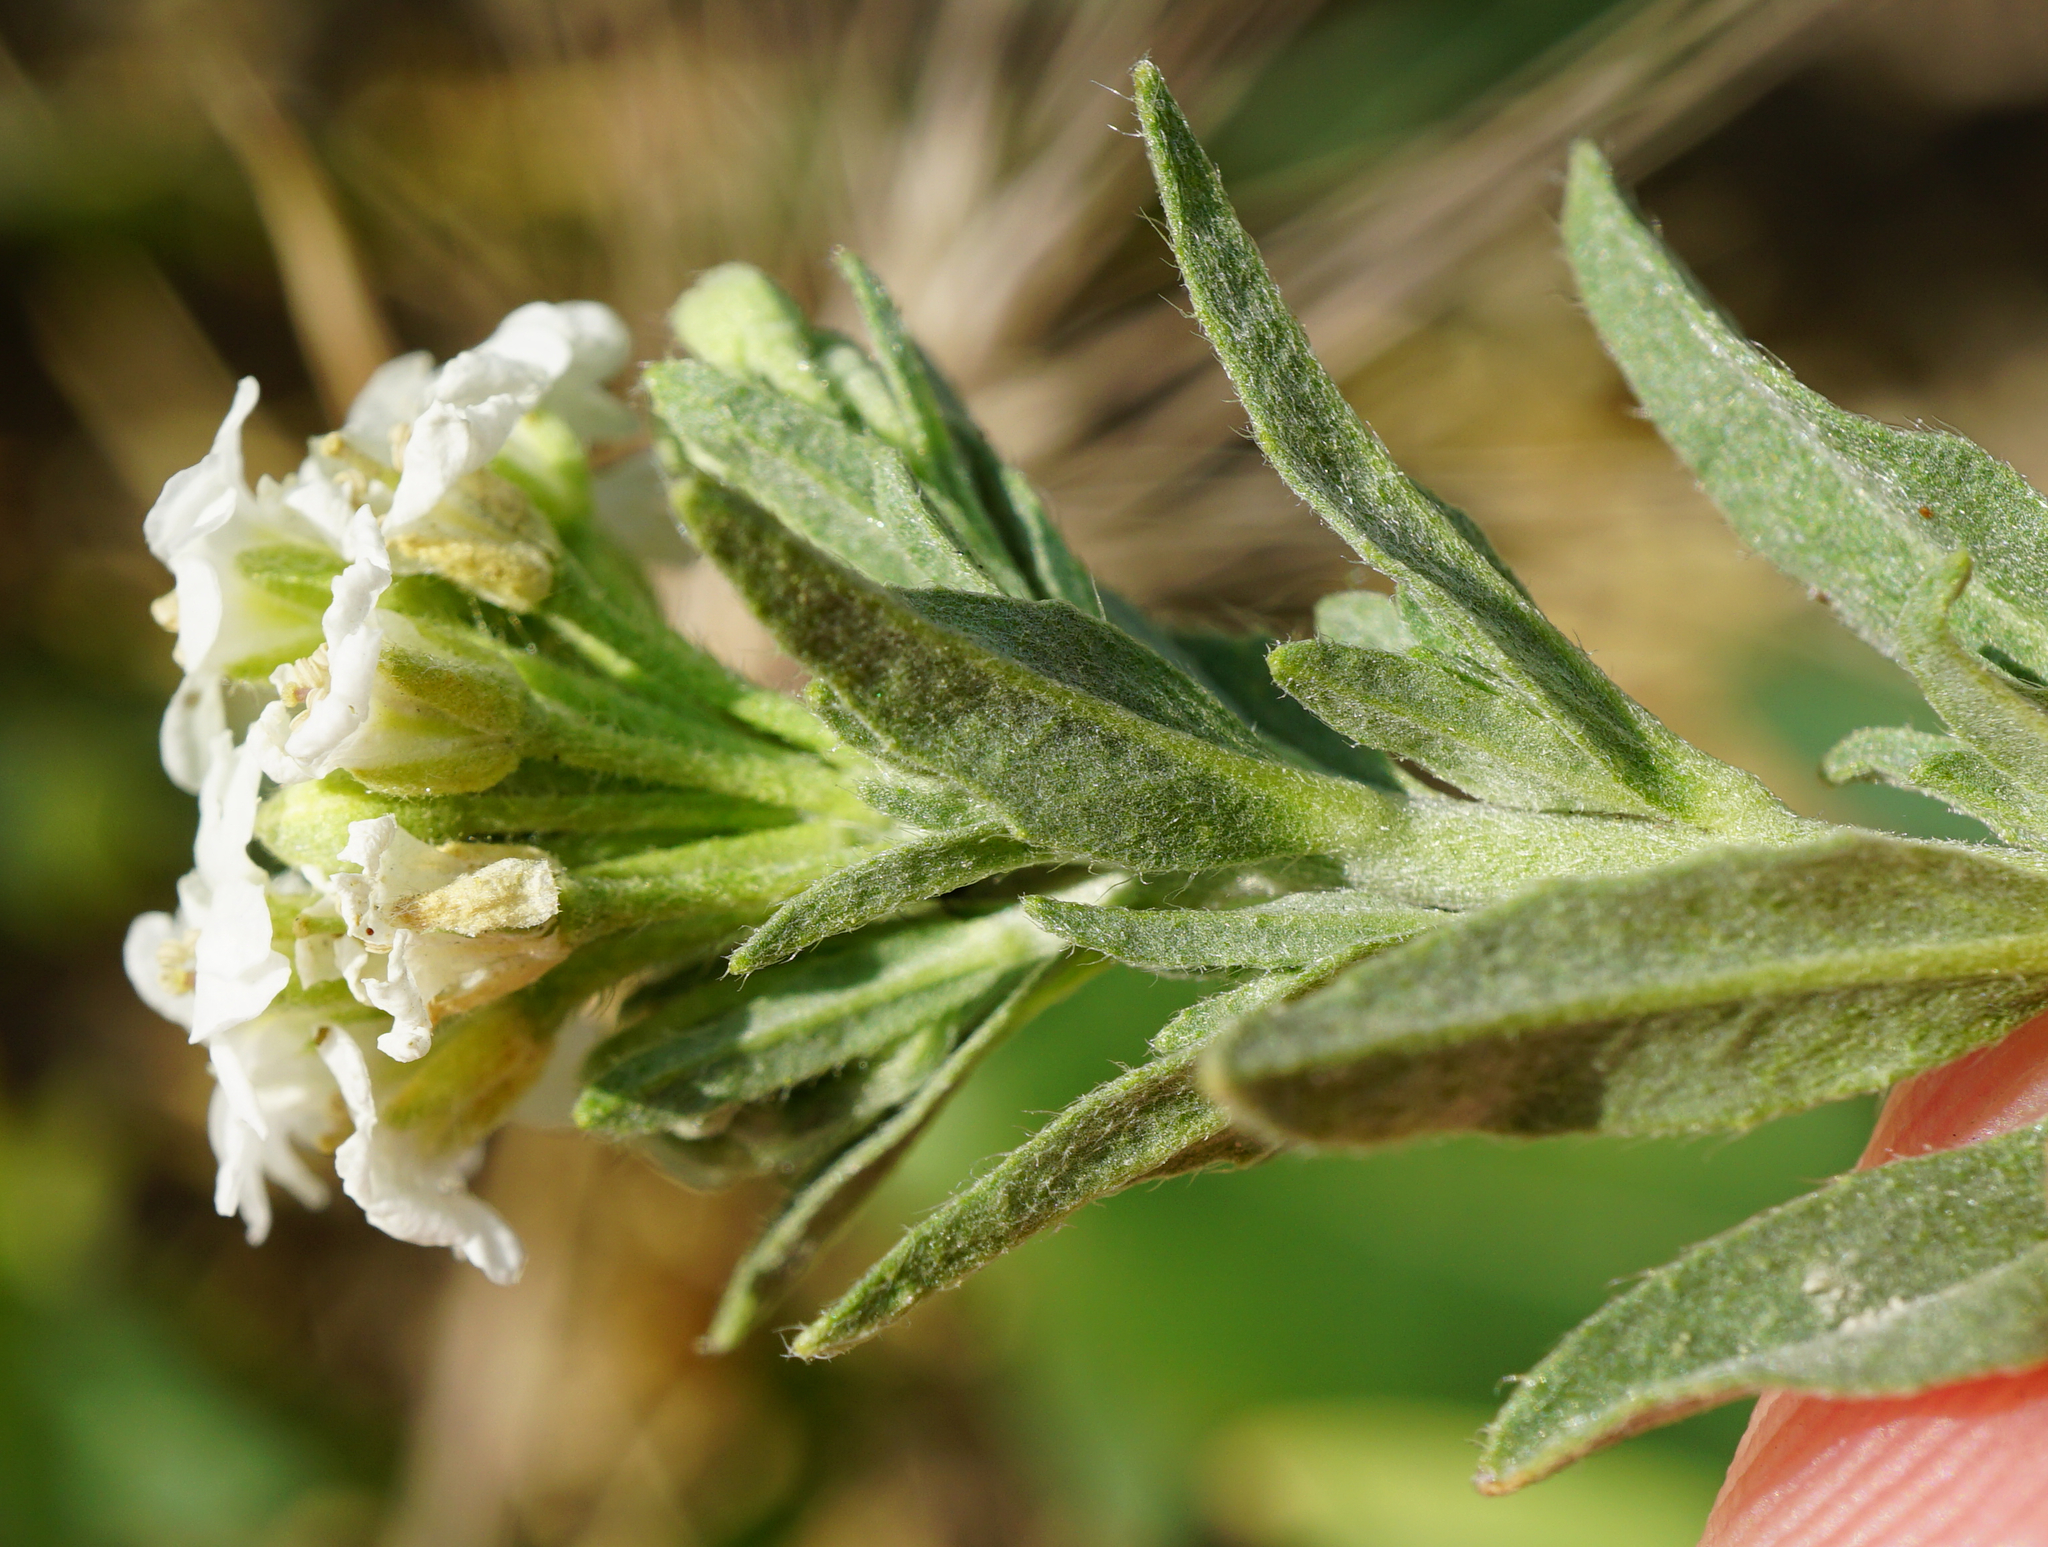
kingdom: Plantae
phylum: Tracheophyta
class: Magnoliopsida
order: Brassicales
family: Brassicaceae
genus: Berteroa
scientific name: Berteroa incana
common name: Hoary alison
